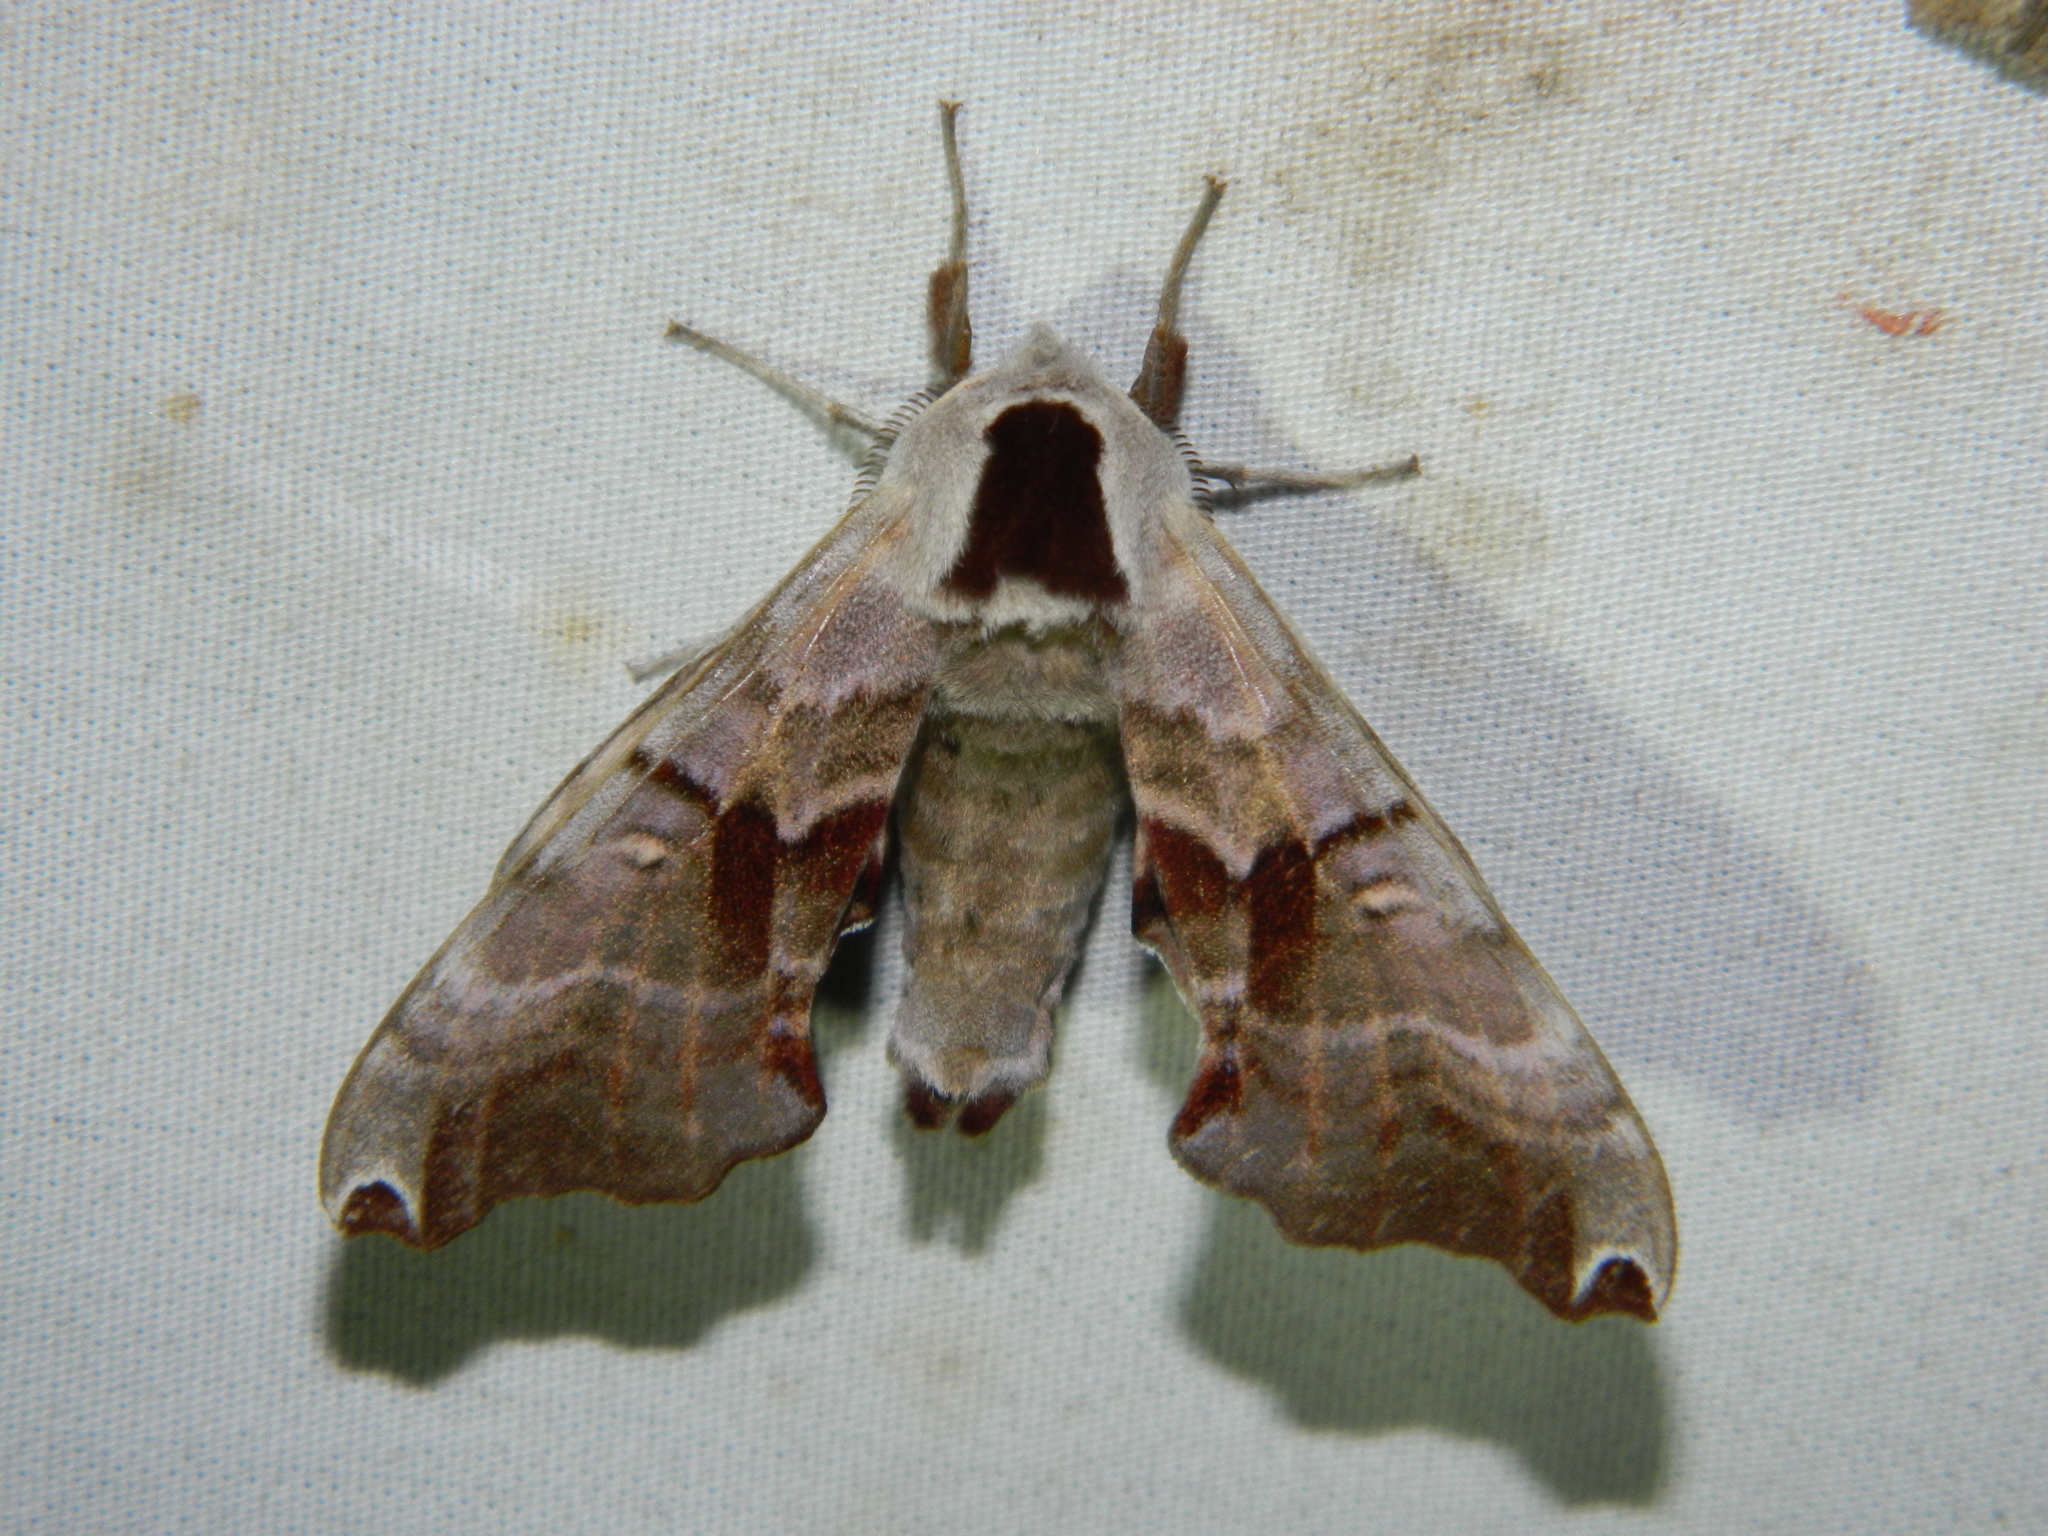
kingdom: Animalia
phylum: Arthropoda
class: Insecta
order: Lepidoptera
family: Sphingidae
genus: Smerinthus
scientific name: Smerinthus jamaicensis
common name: Twin spotted sphinx
